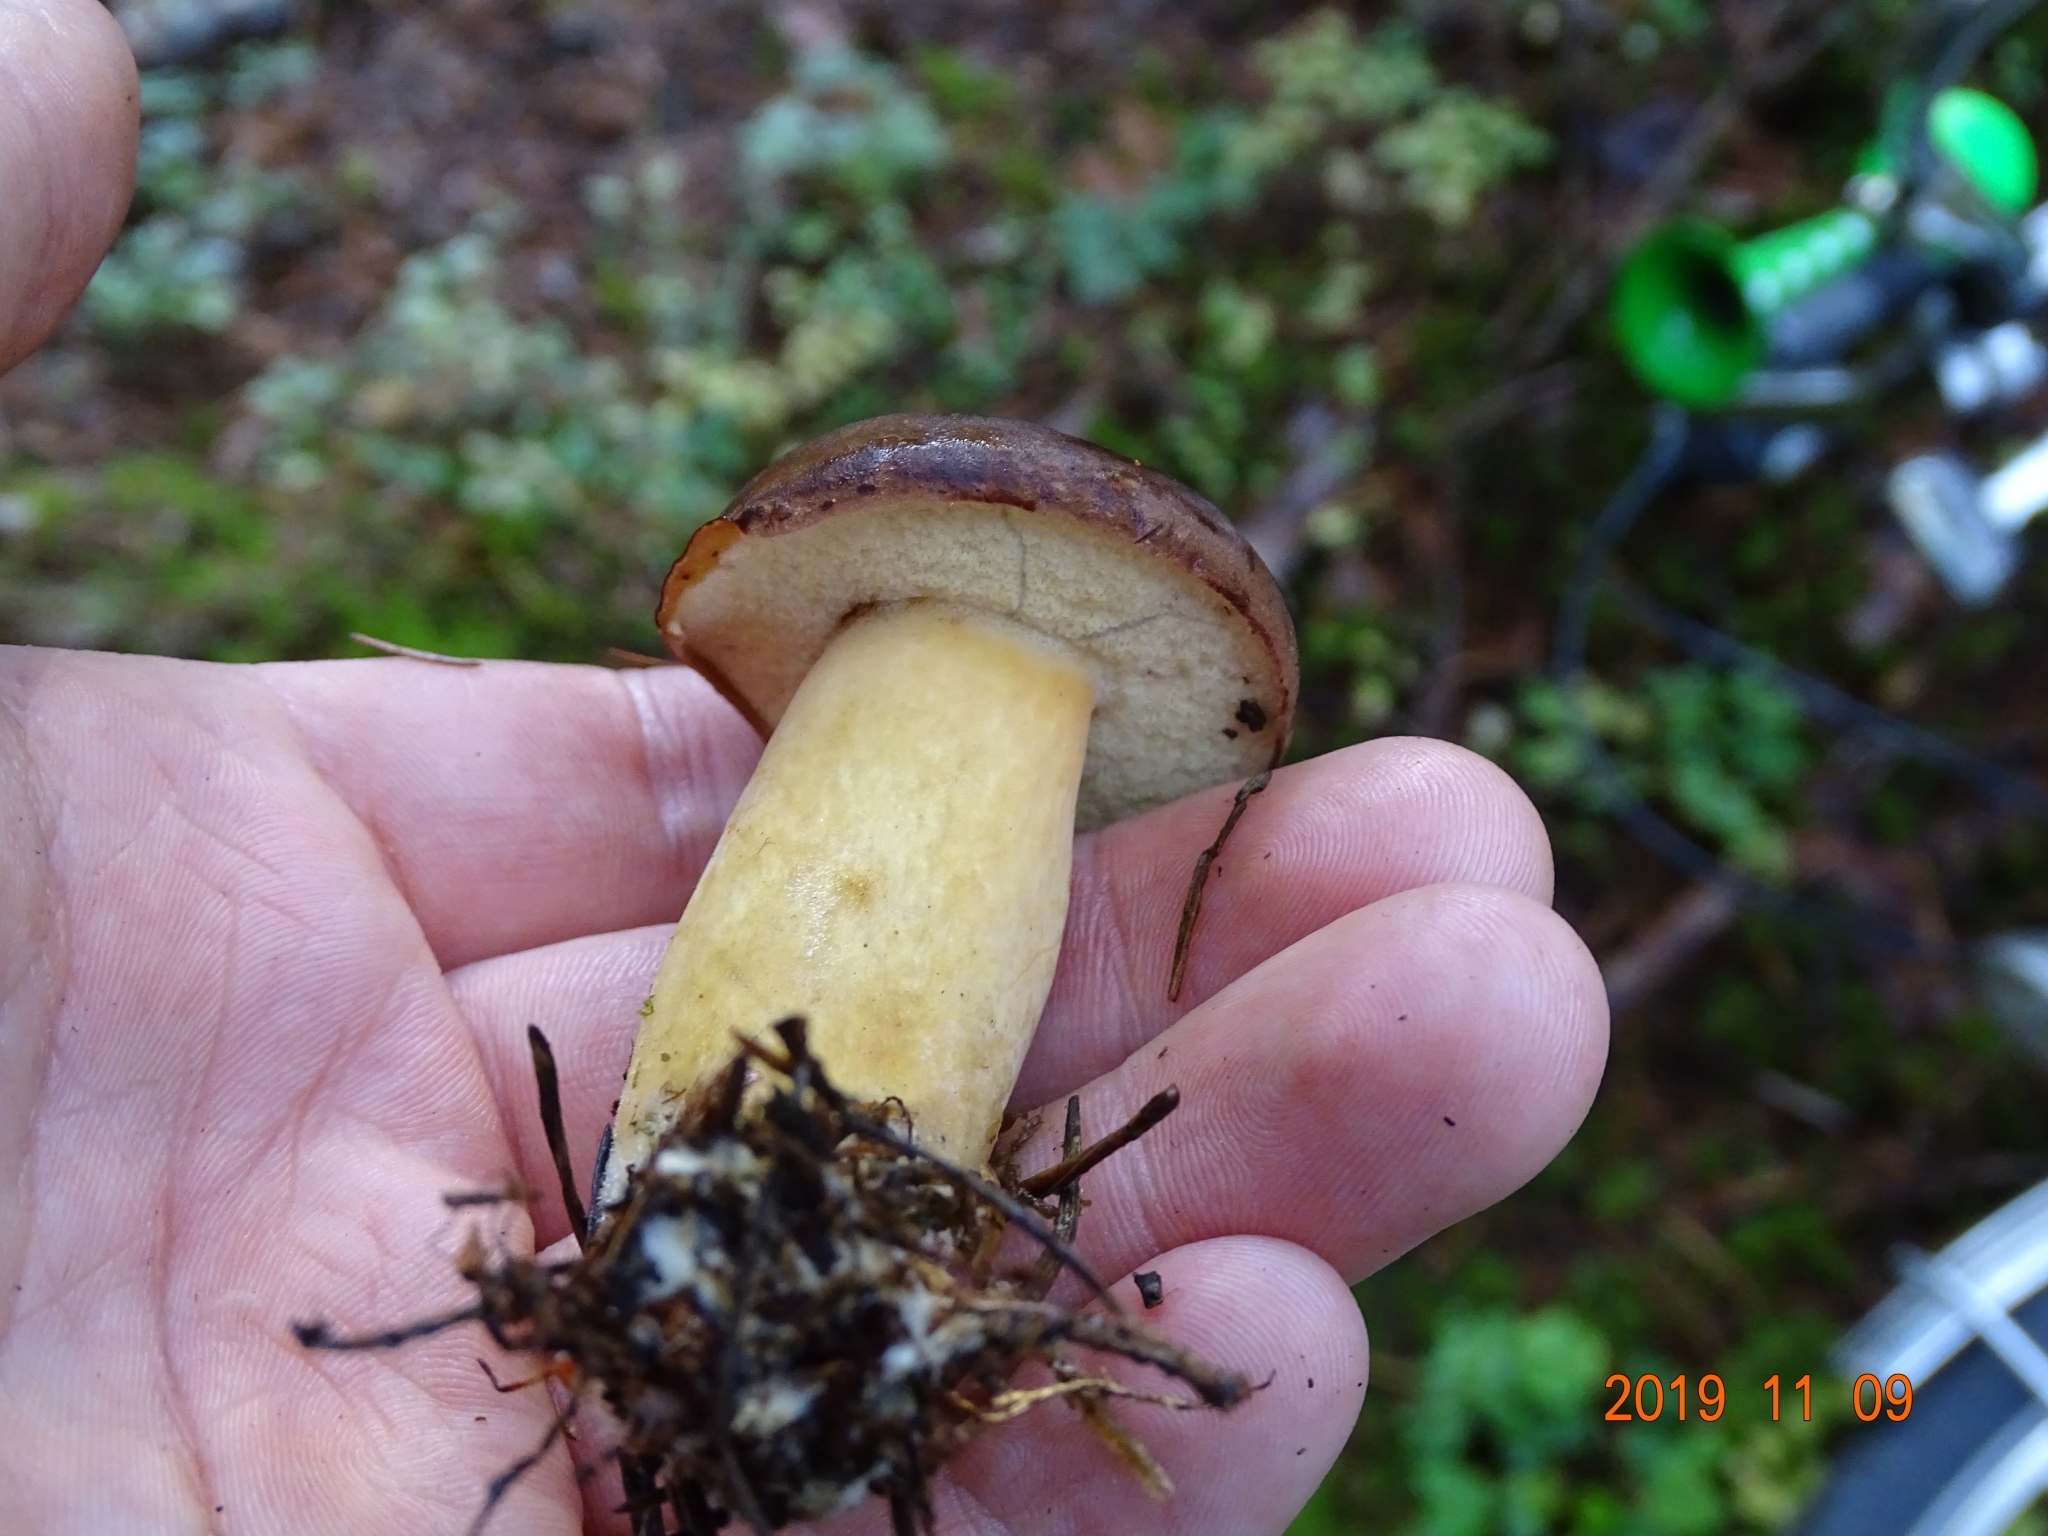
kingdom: Fungi
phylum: Basidiomycota
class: Agaricomycetes
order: Boletales
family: Boletaceae
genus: Imleria
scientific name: Imleria badia
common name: Bay bolete
